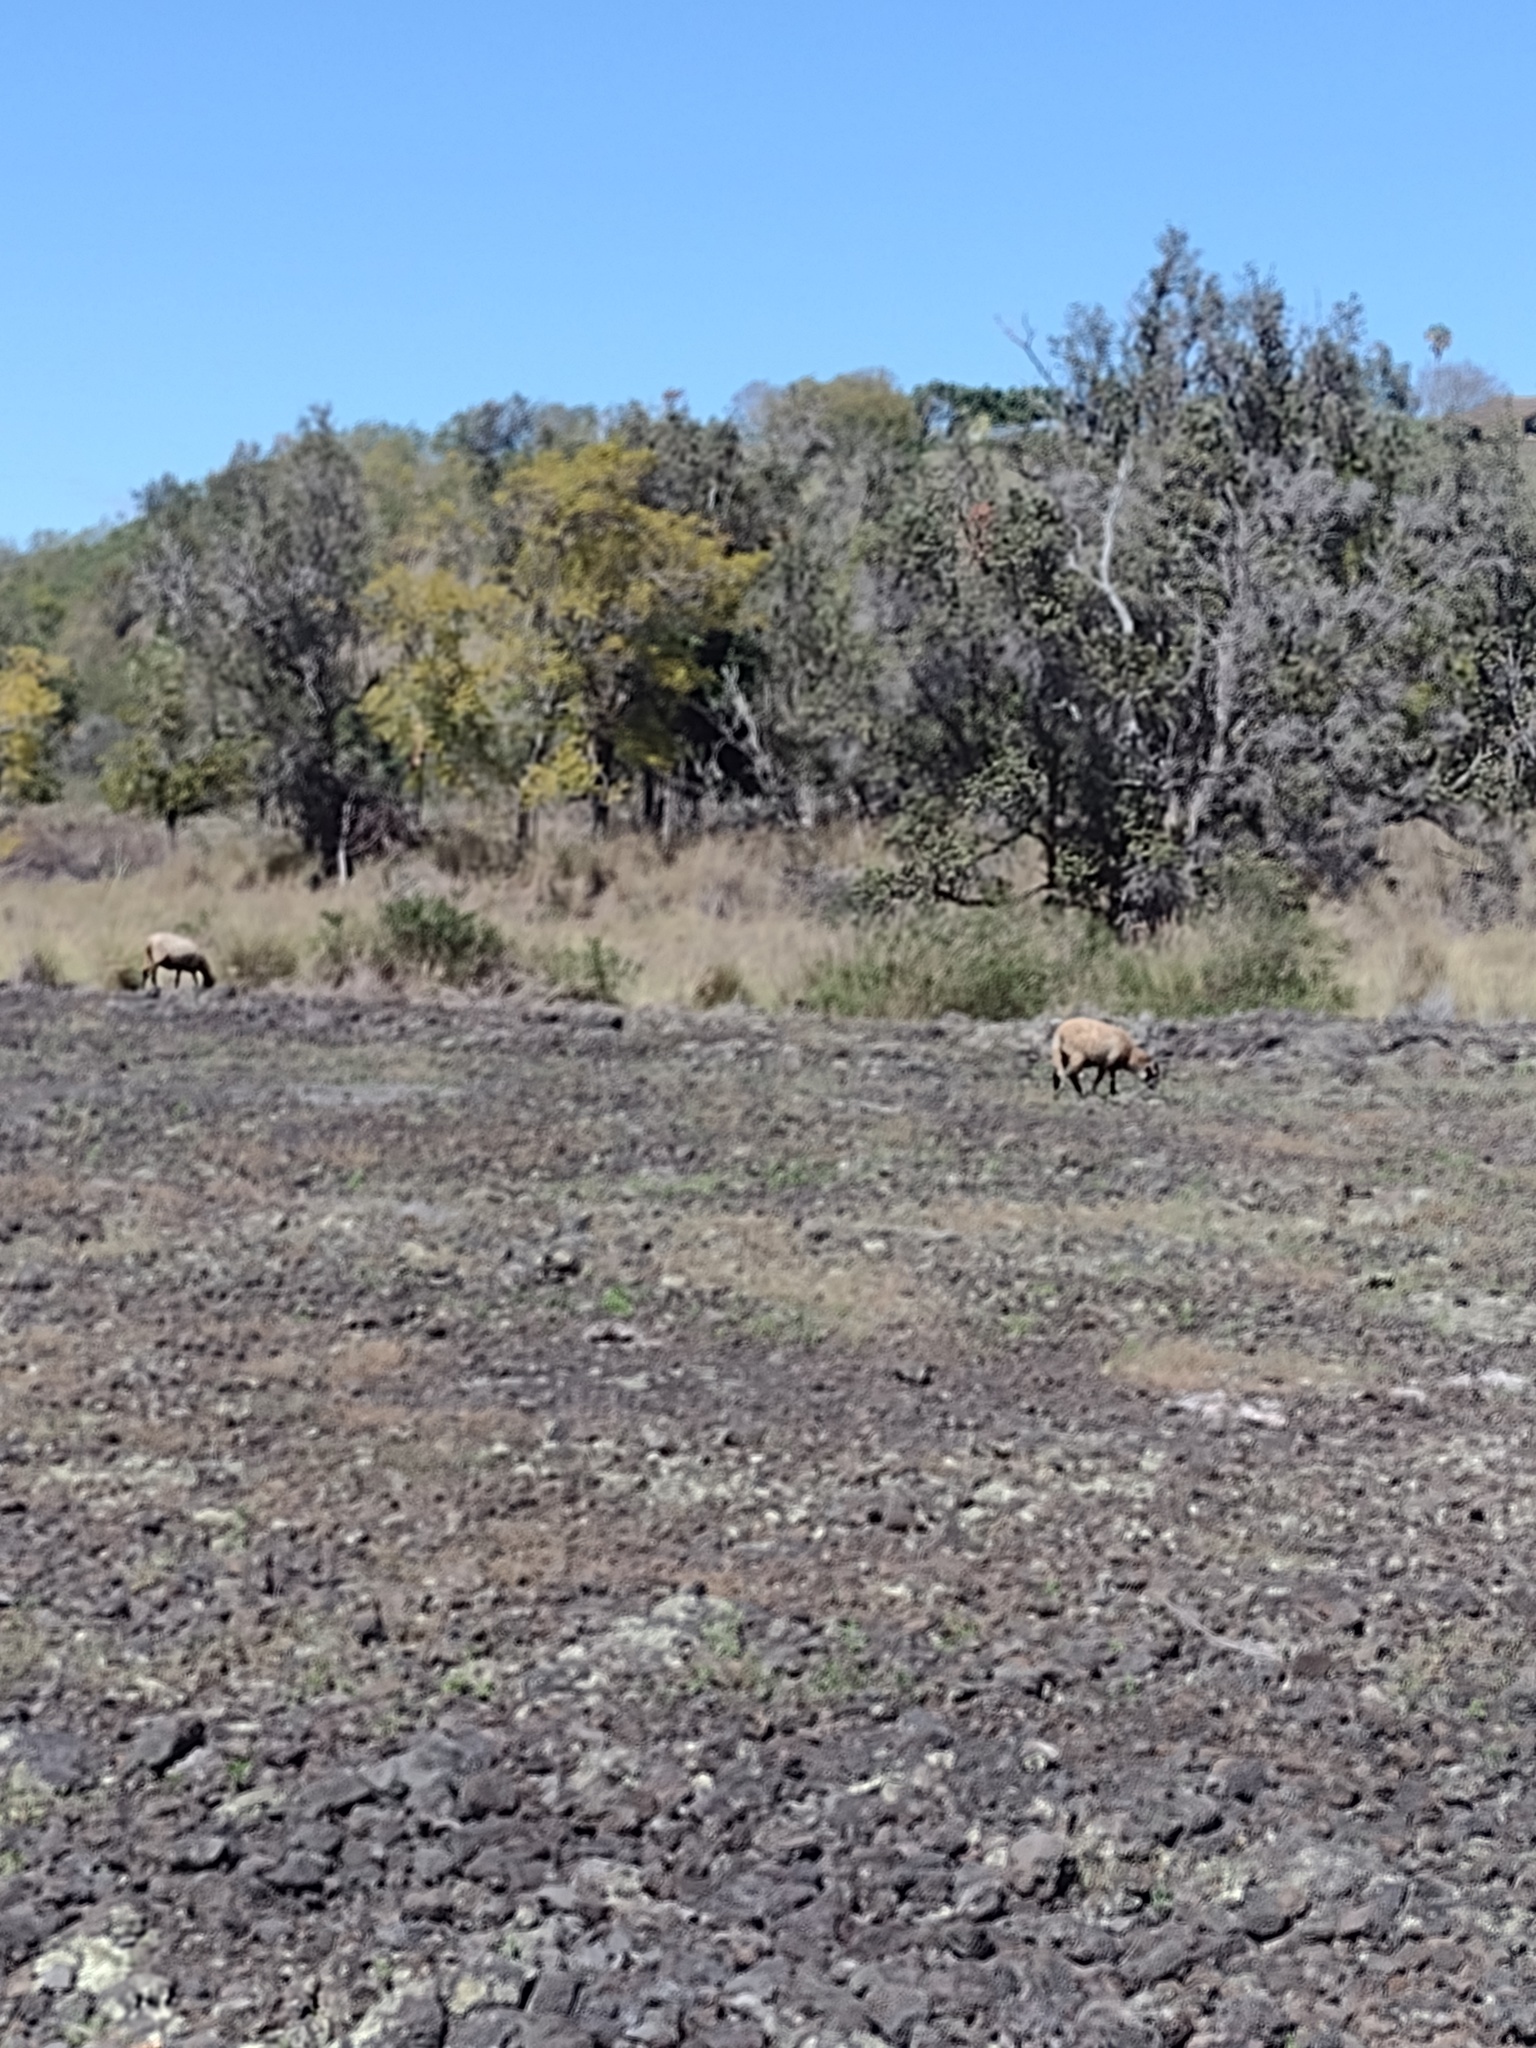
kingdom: Animalia
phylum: Chordata
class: Mammalia
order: Artiodactyla
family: Bovidae
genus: Capra
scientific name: Capra hircus
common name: Domestic goat
